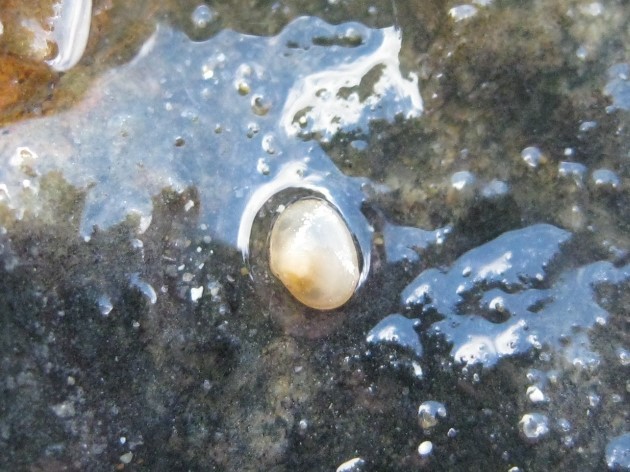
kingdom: Animalia
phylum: Mollusca
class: Bivalvia
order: Galeommatida
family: Lasaeidae
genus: Borniola
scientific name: Borniola reniformis
